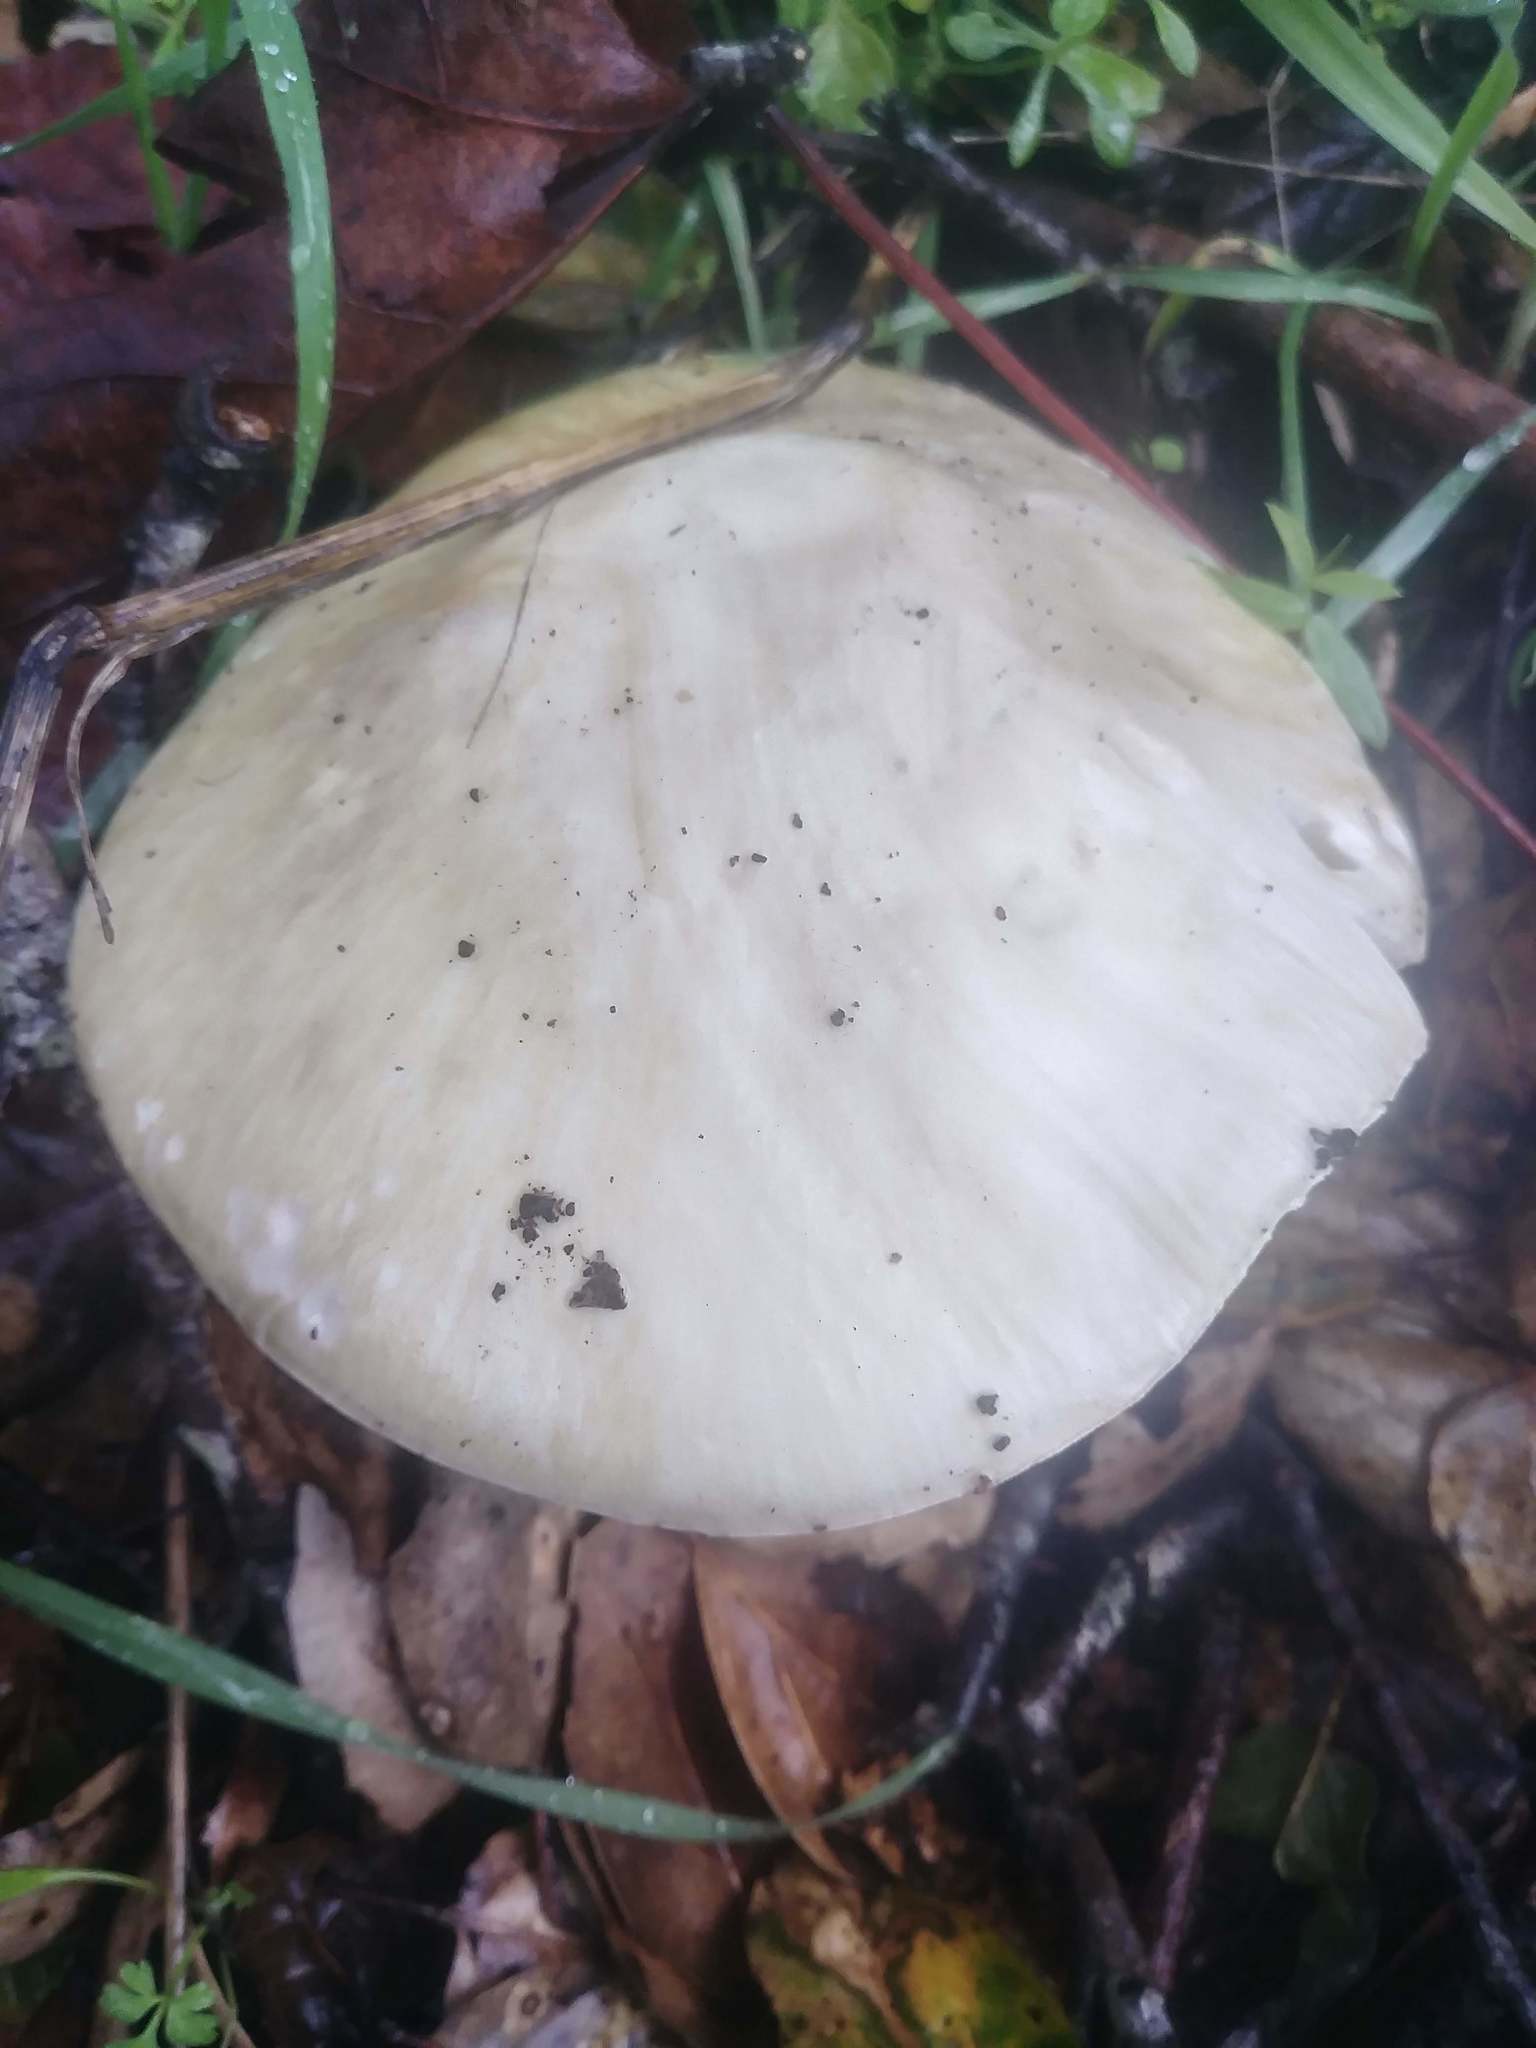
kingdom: Fungi
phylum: Basidiomycota
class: Agaricomycetes
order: Agaricales
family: Amanitaceae
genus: Amanita
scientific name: Amanita phalloides
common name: Death cap
